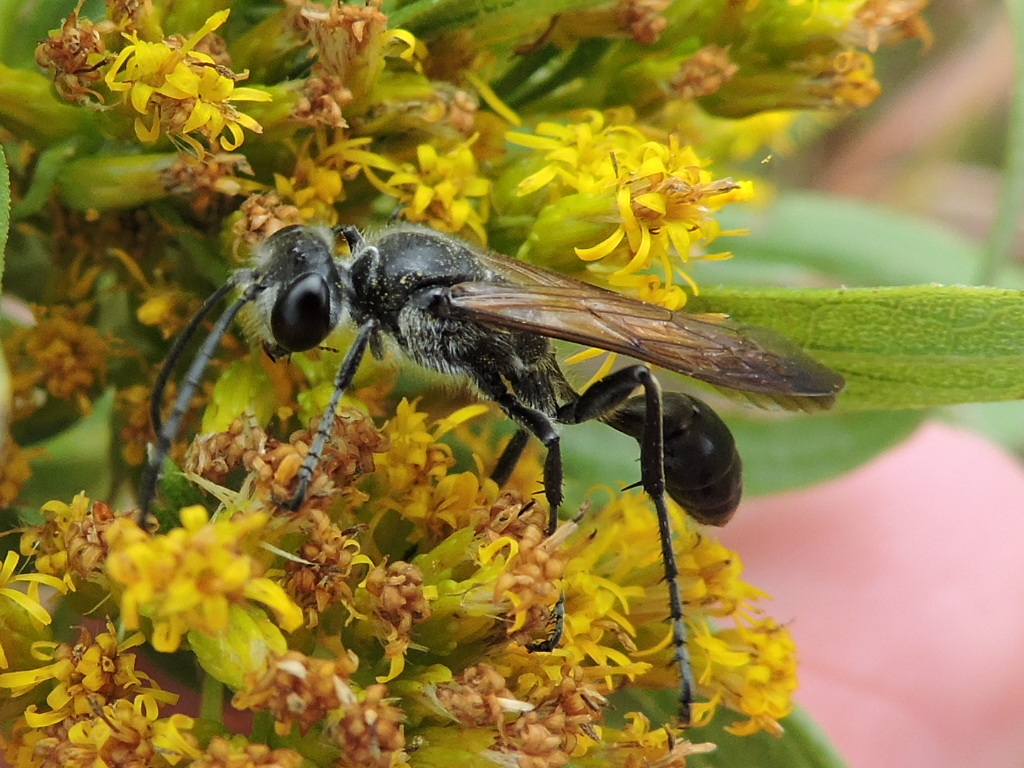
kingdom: Animalia
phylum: Arthropoda
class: Insecta
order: Hymenoptera
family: Sphecidae
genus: Isodontia
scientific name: Isodontia mexicana
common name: Mud dauber
